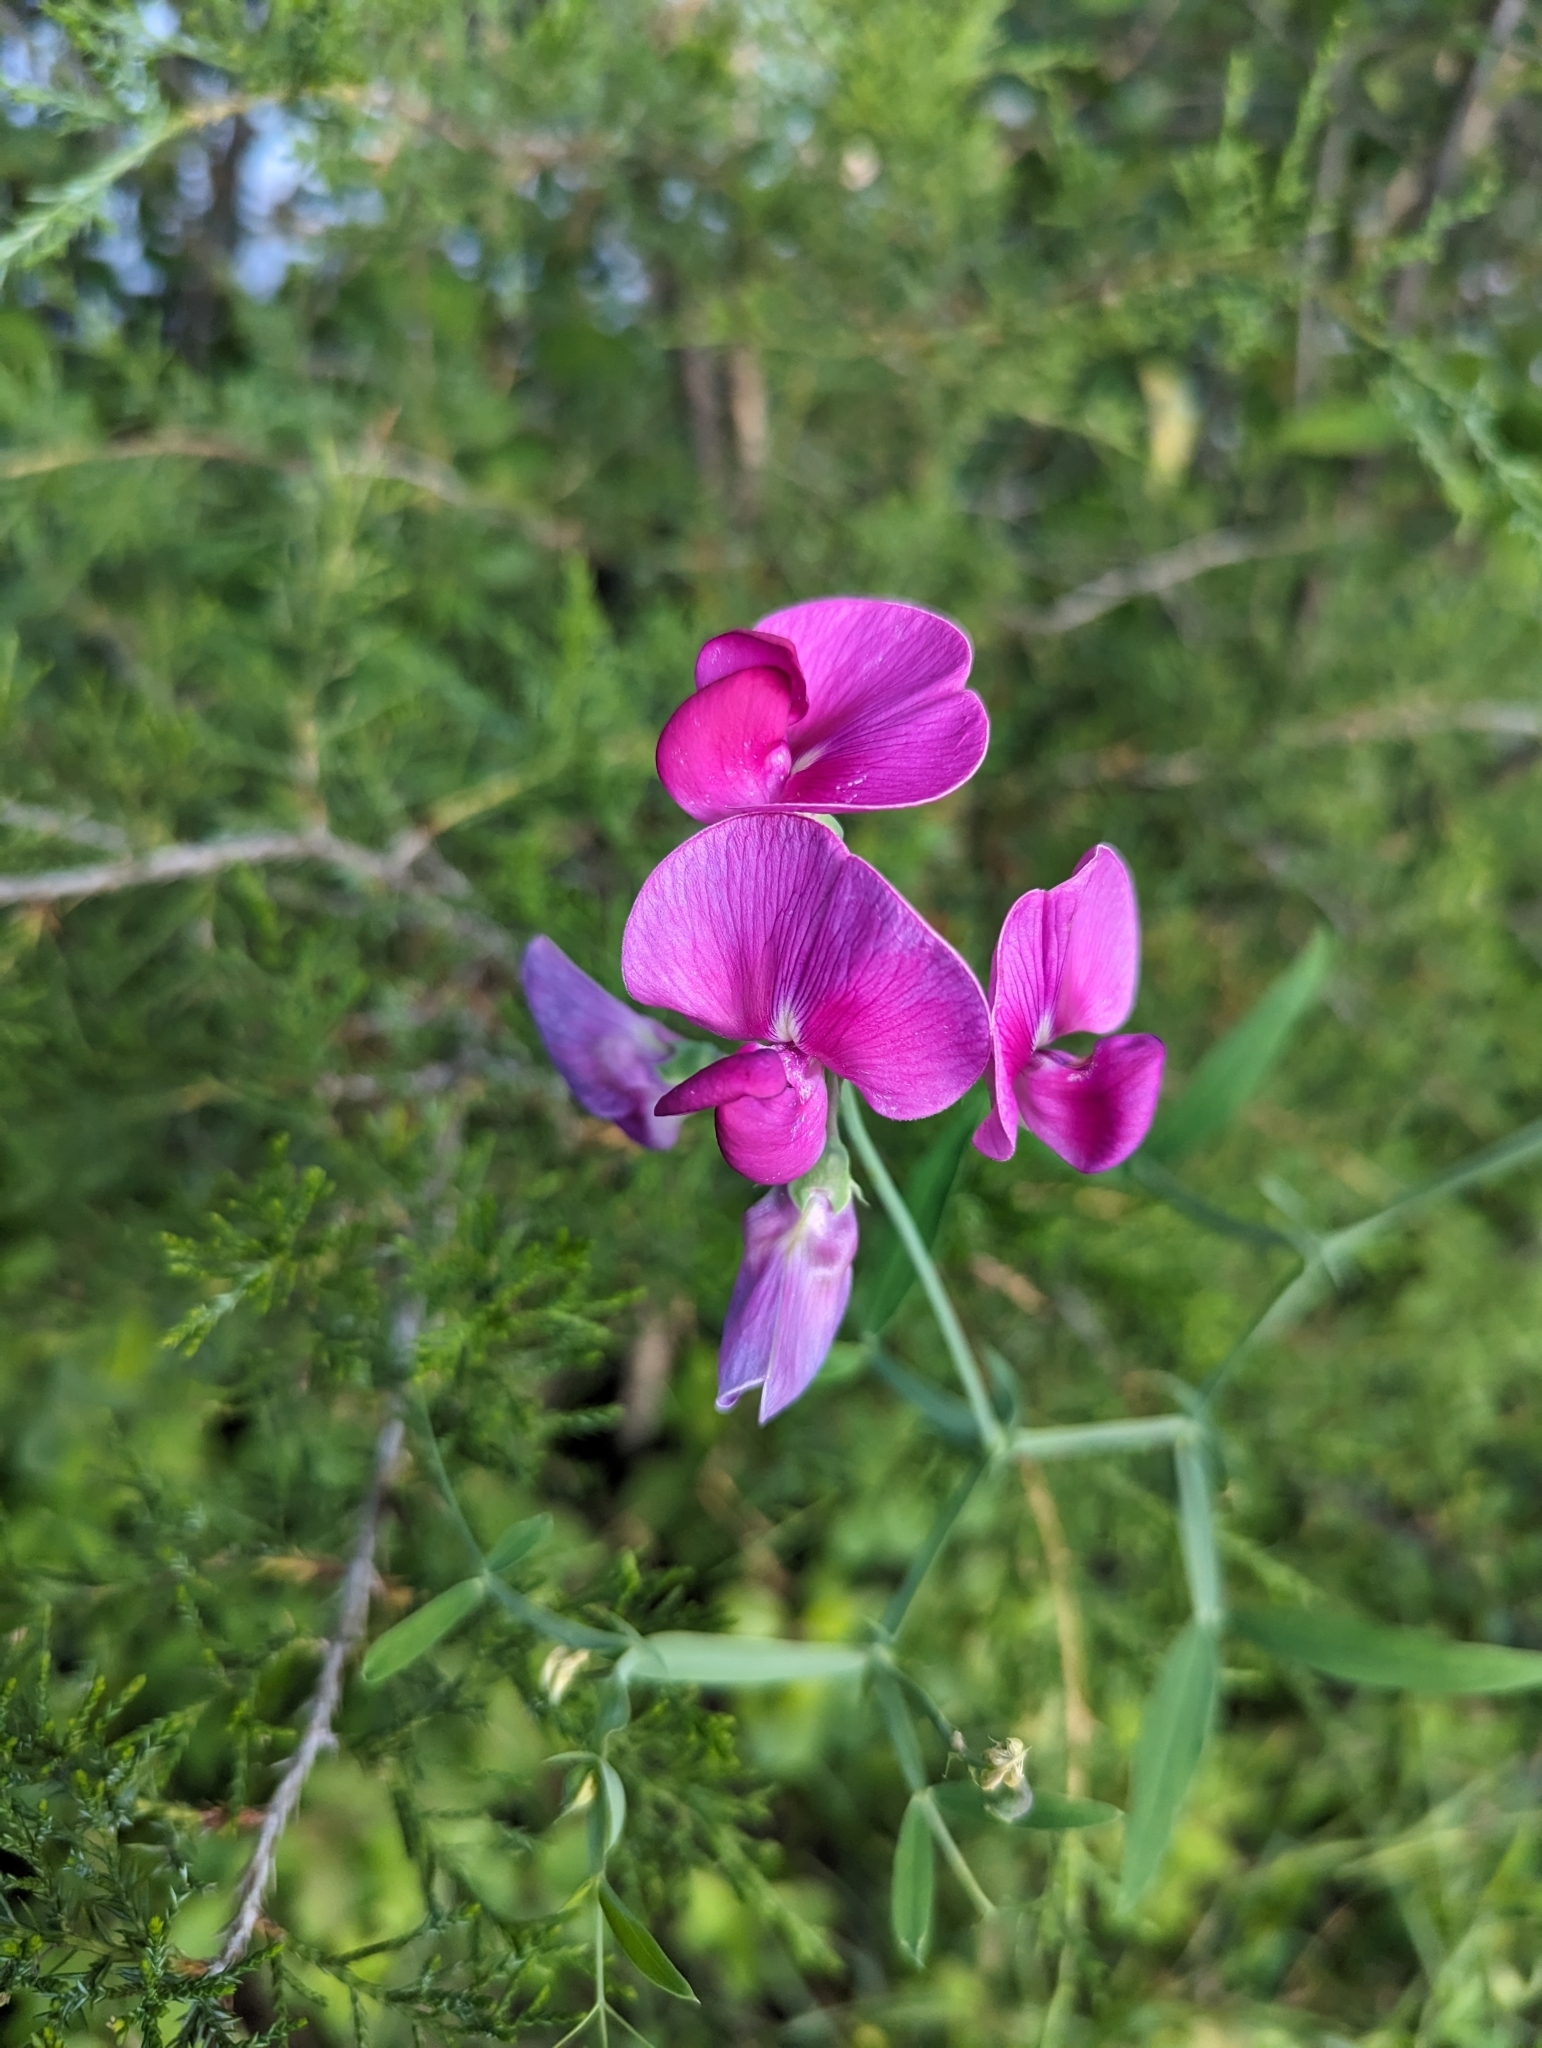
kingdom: Plantae
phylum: Tracheophyta
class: Magnoliopsida
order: Fabales
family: Fabaceae
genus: Lathyrus
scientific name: Lathyrus latifolius
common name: Perennial pea
